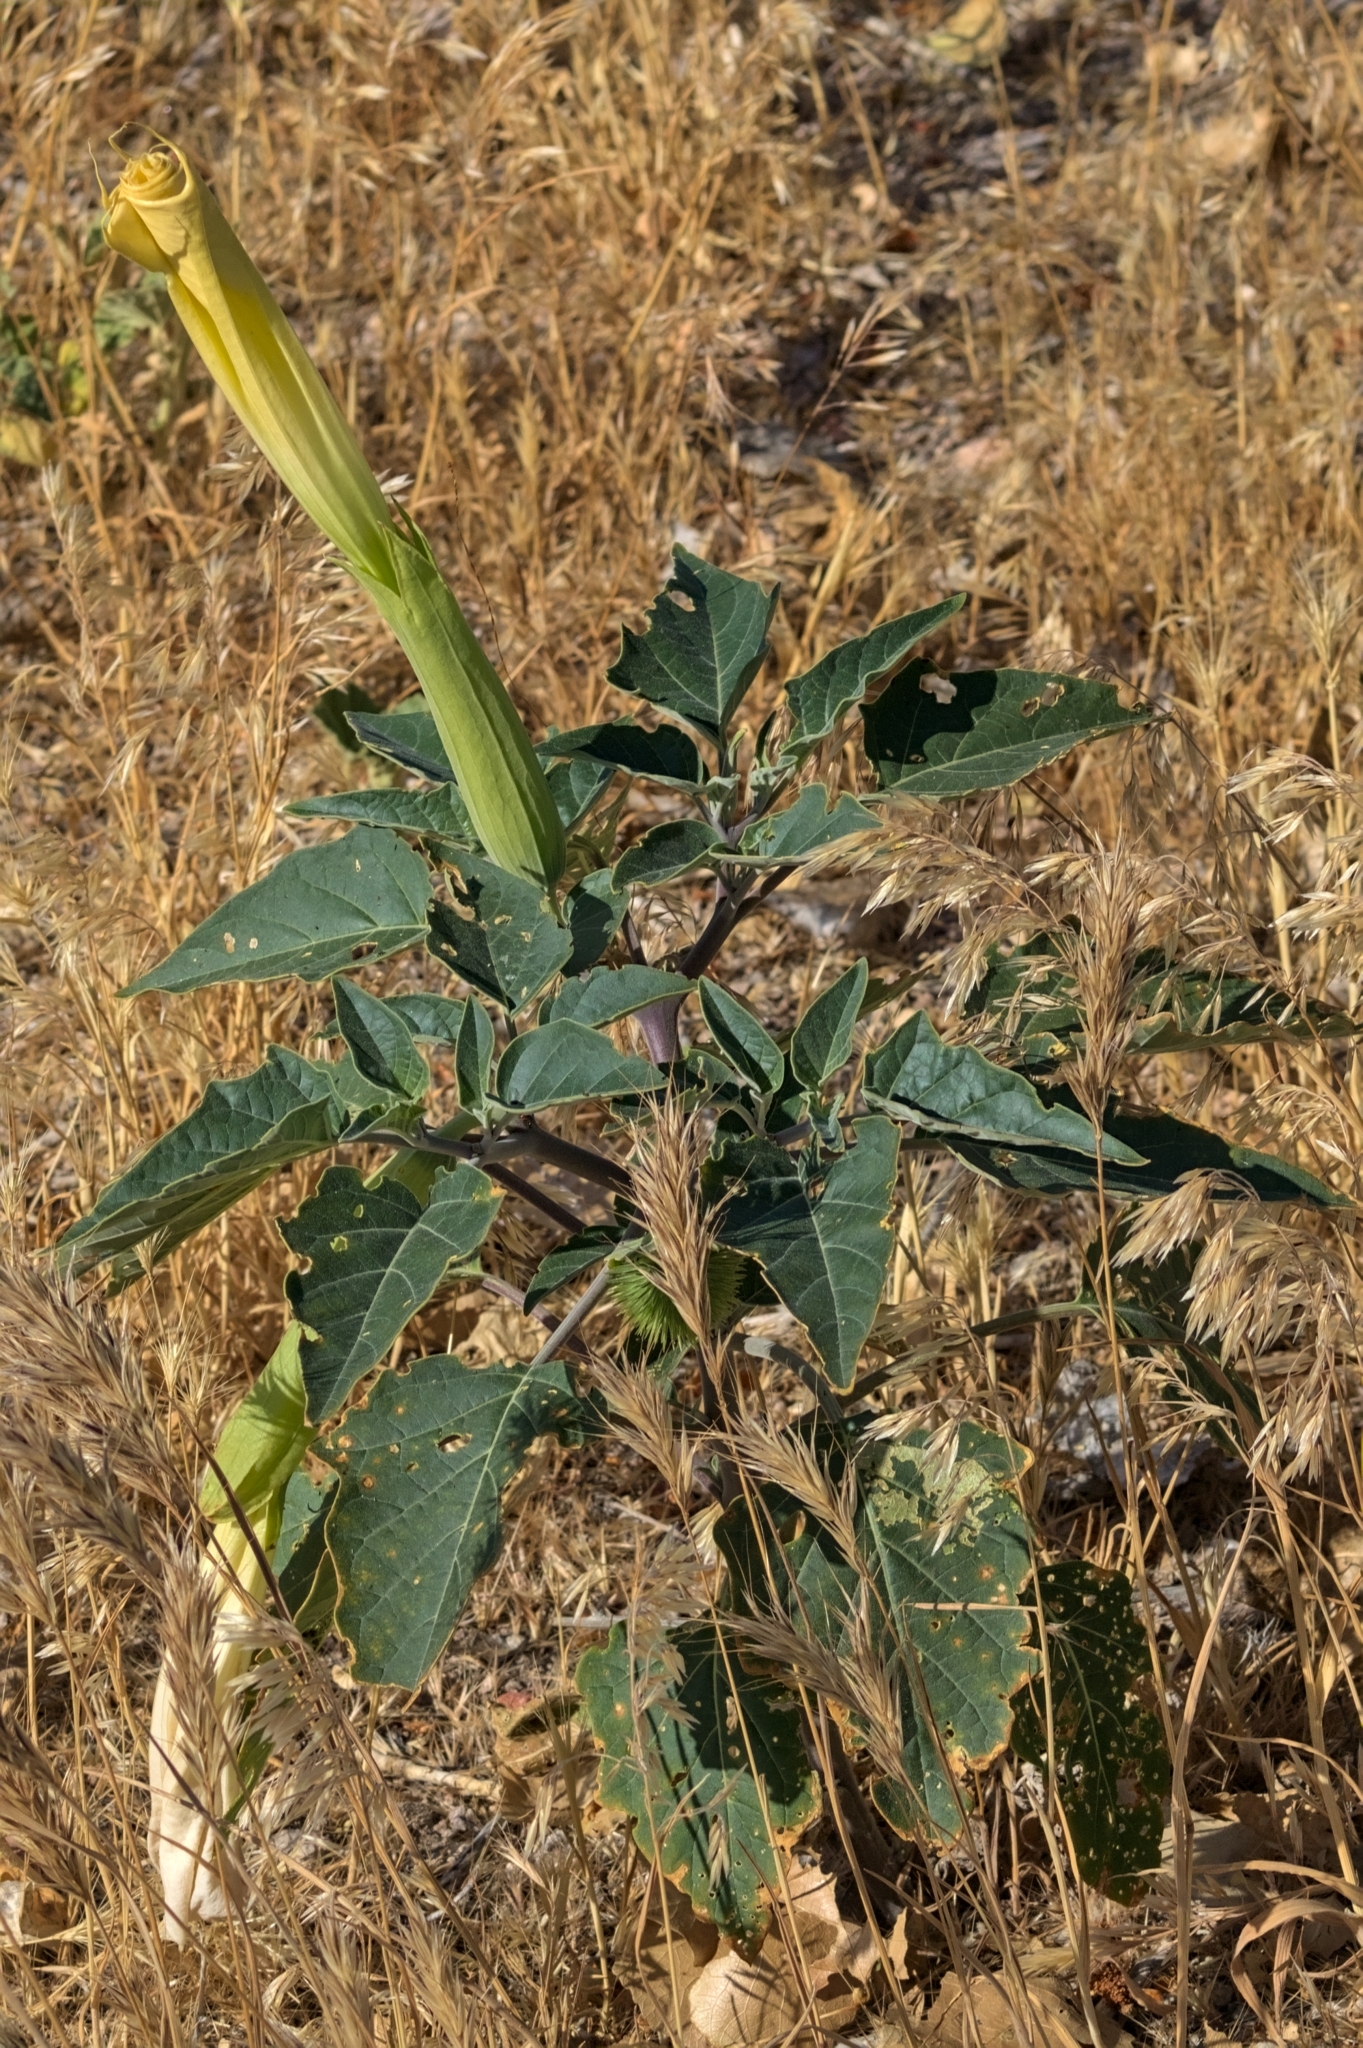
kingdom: Plantae
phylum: Tracheophyta
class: Magnoliopsida
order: Solanales
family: Solanaceae
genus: Datura
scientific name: Datura wrightii
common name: Sacred thorn-apple
